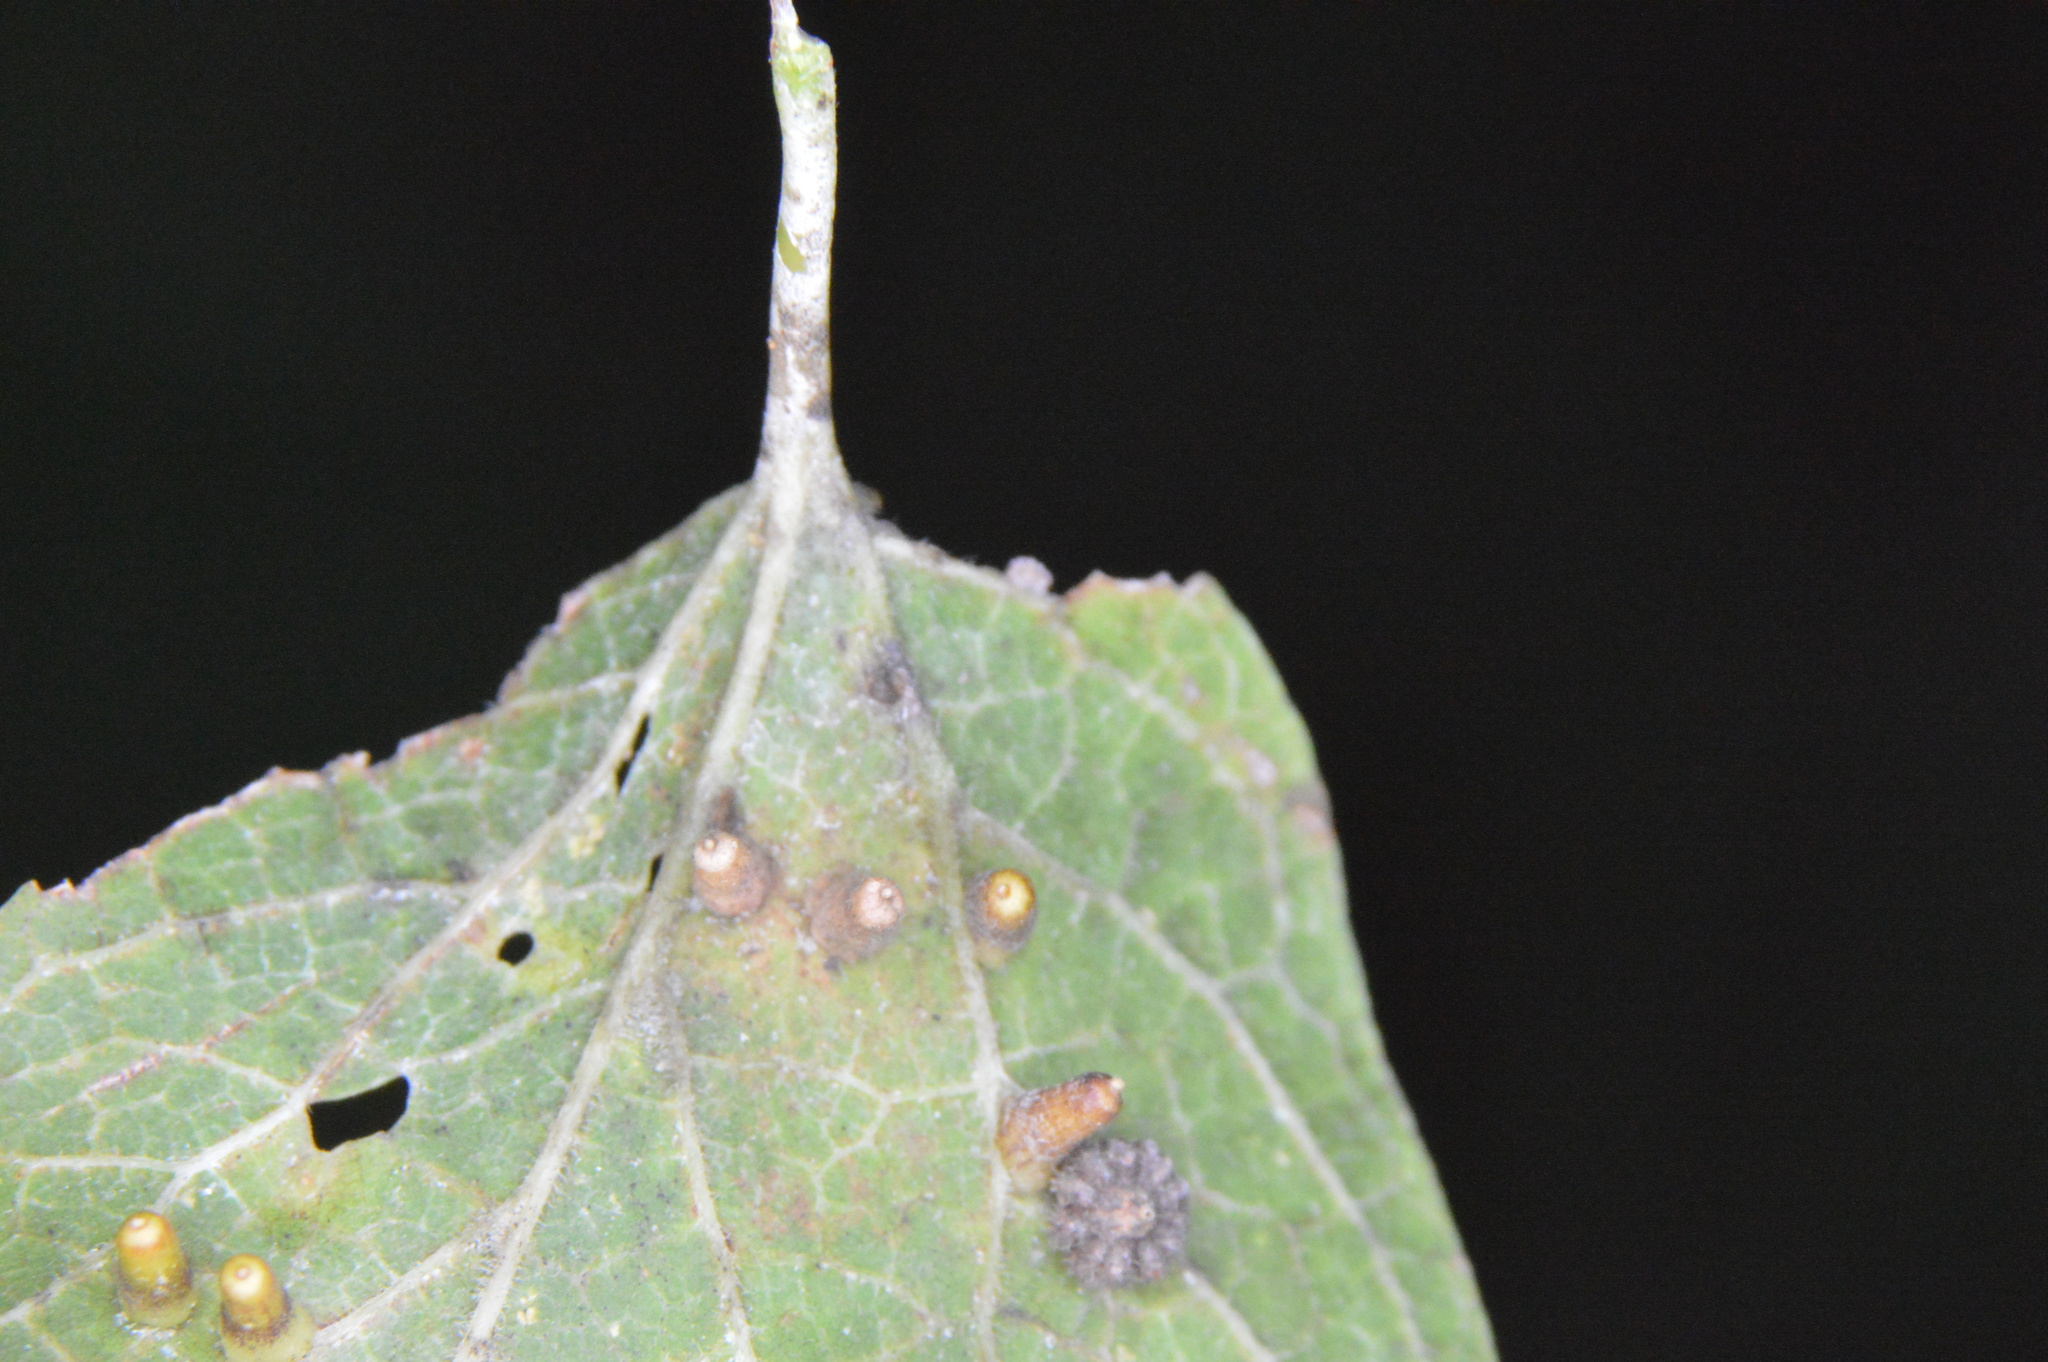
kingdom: Animalia
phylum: Arthropoda
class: Insecta
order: Diptera
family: Cecidomyiidae
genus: Celticecis
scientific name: Celticecis aciculata
